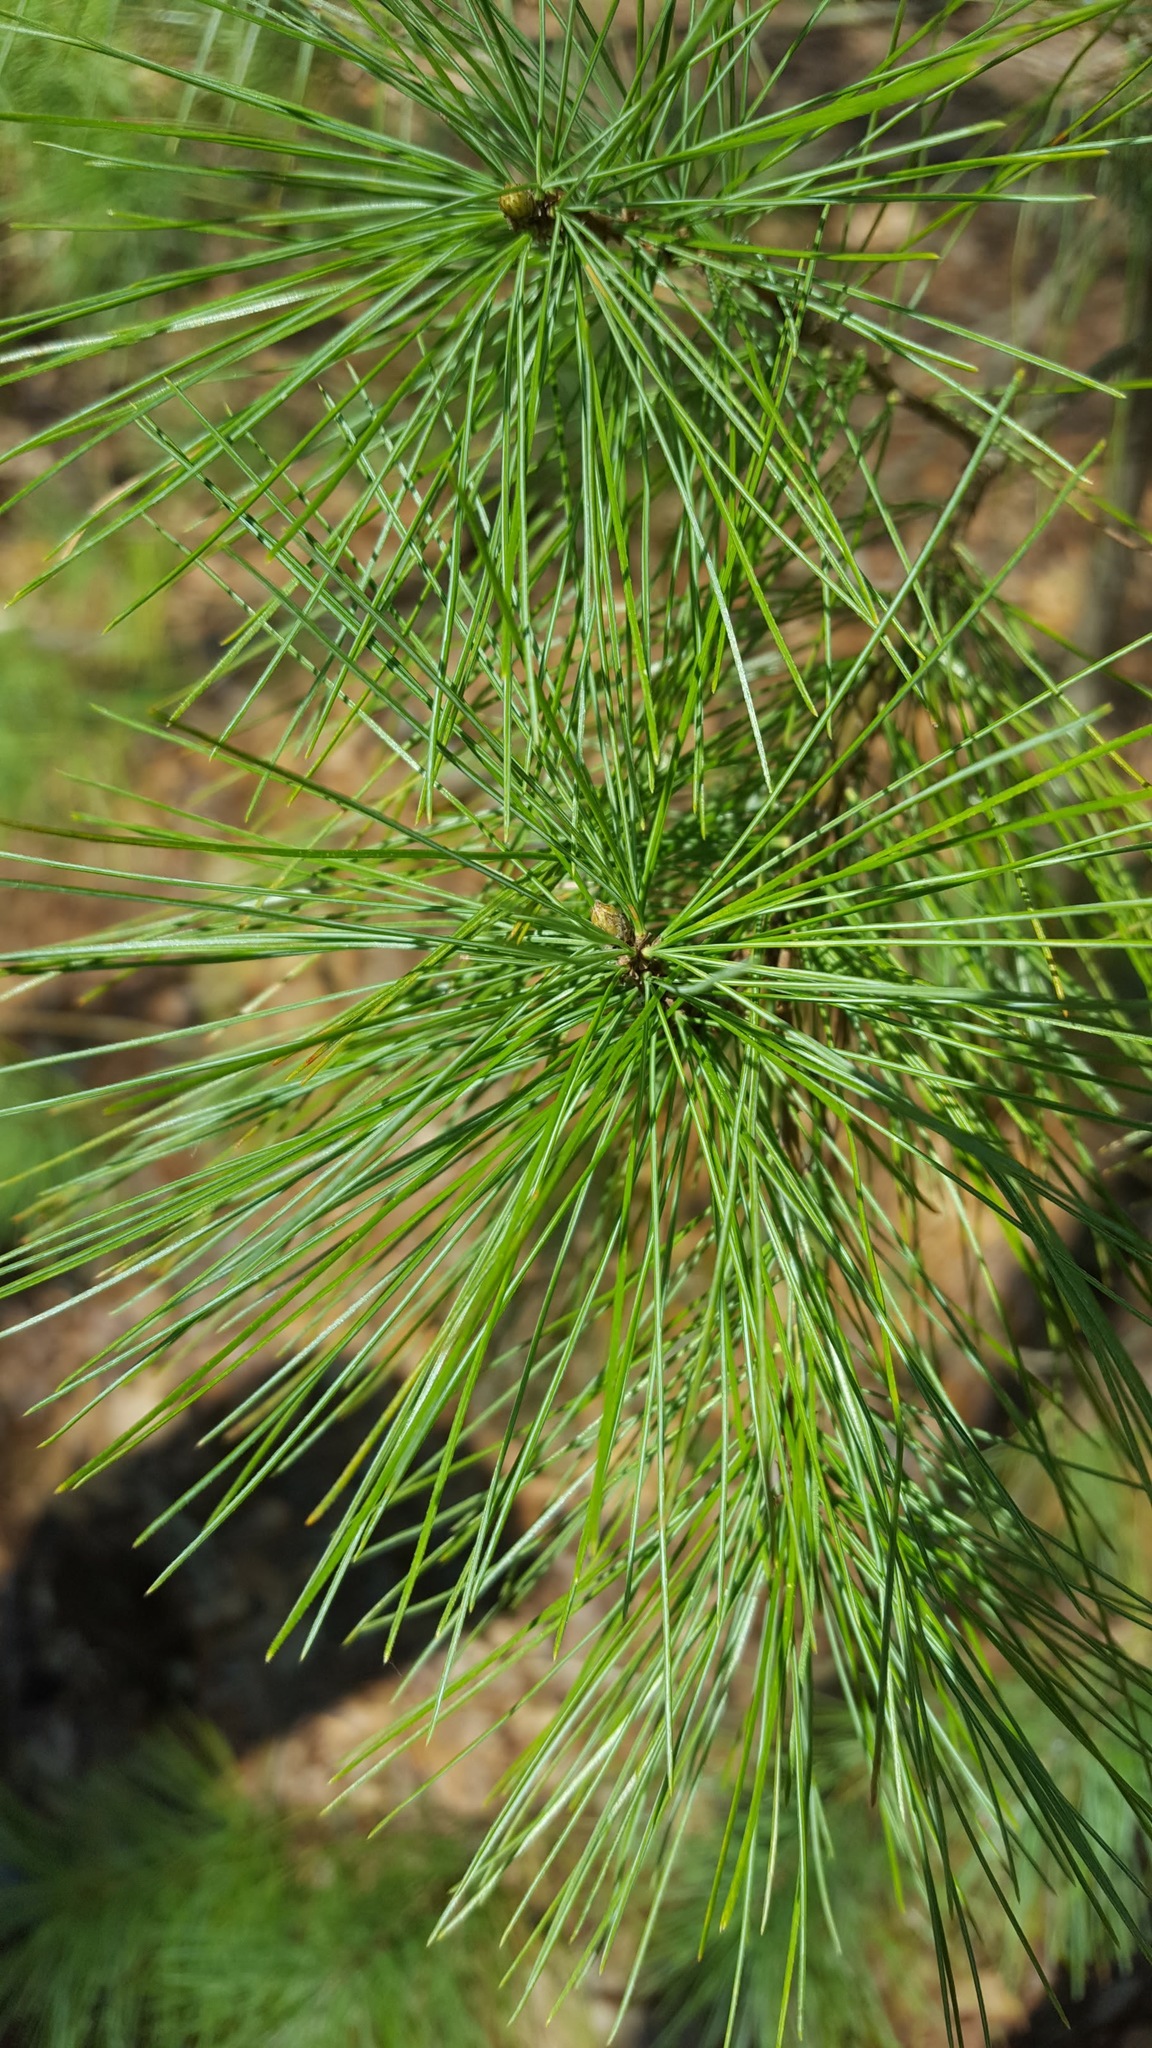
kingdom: Plantae
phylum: Tracheophyta
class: Pinopsida
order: Pinales
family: Pinaceae
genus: Pinus
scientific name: Pinus strobus
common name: Weymouth pine
